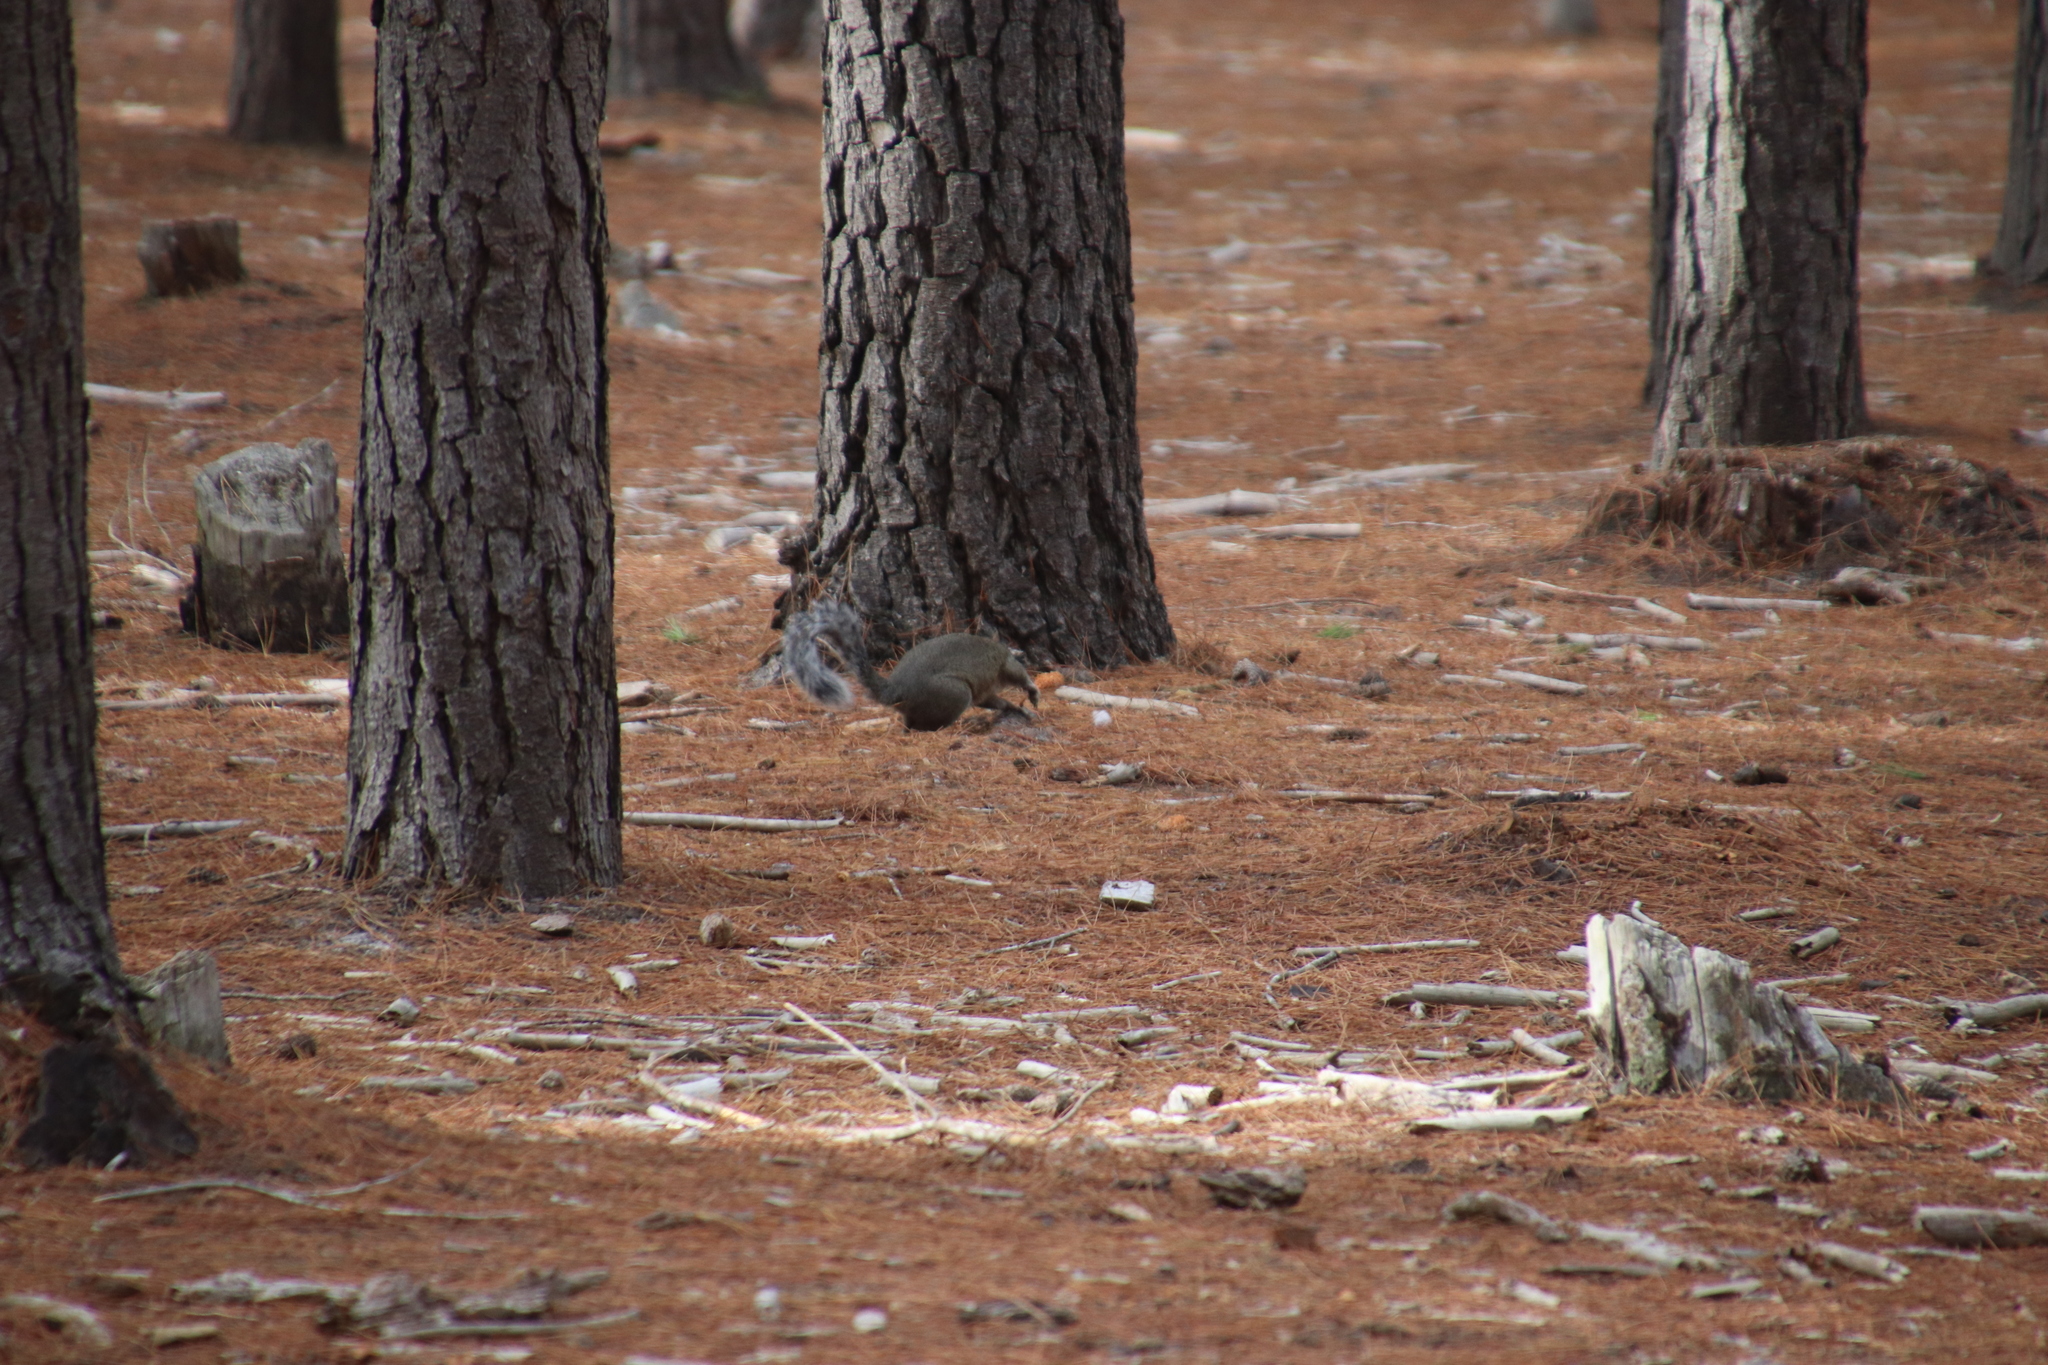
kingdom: Animalia
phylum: Chordata
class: Mammalia
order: Rodentia
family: Sciuridae
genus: Sciurus
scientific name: Sciurus carolinensis
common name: Eastern gray squirrel
